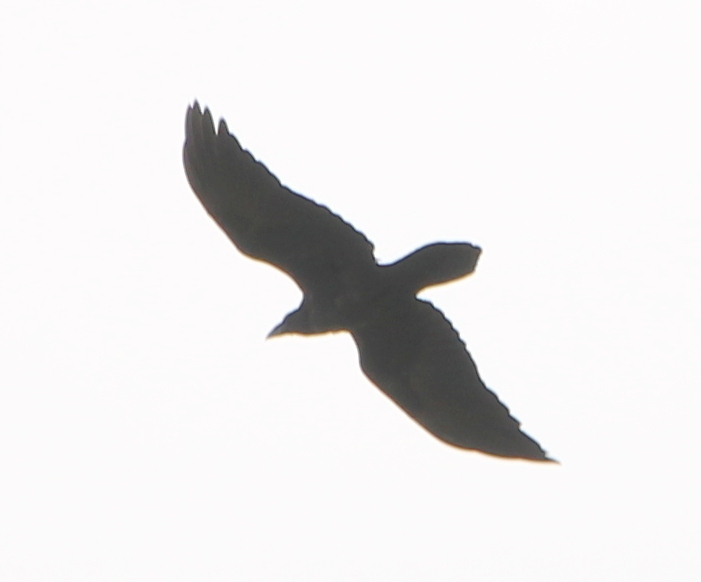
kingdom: Animalia
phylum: Chordata
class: Aves
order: Passeriformes
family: Corvidae
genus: Corvus
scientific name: Corvus corax
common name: Common raven
